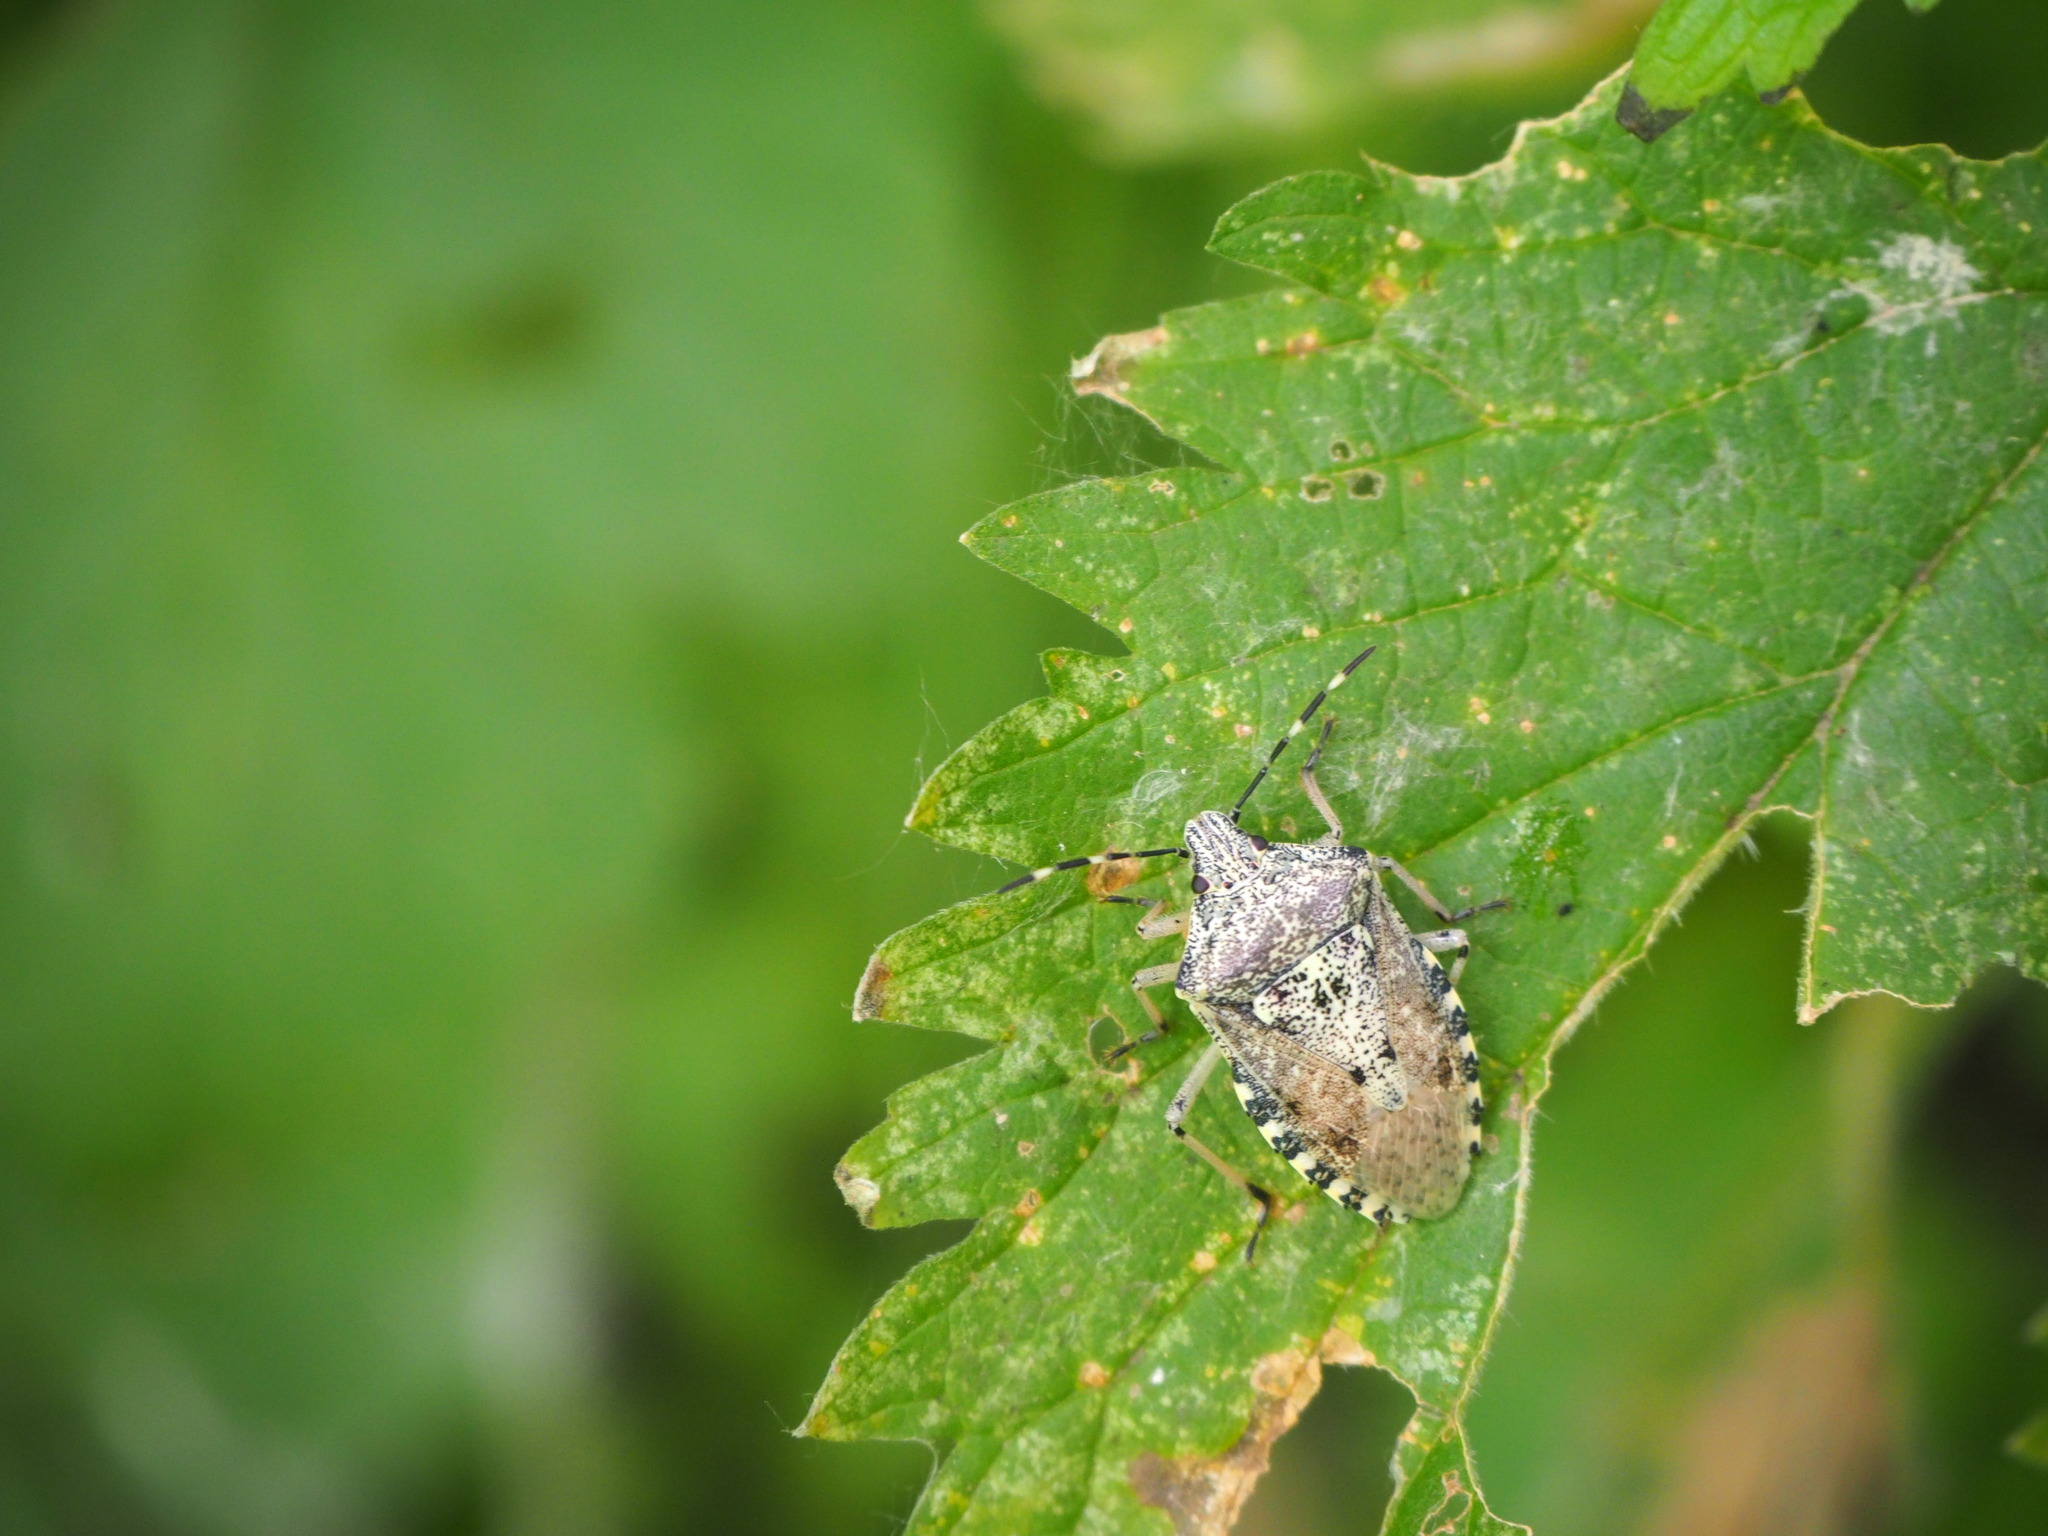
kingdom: Animalia
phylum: Arthropoda
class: Insecta
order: Hemiptera
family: Pentatomidae
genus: Rhaphigaster
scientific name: Rhaphigaster nebulosa
